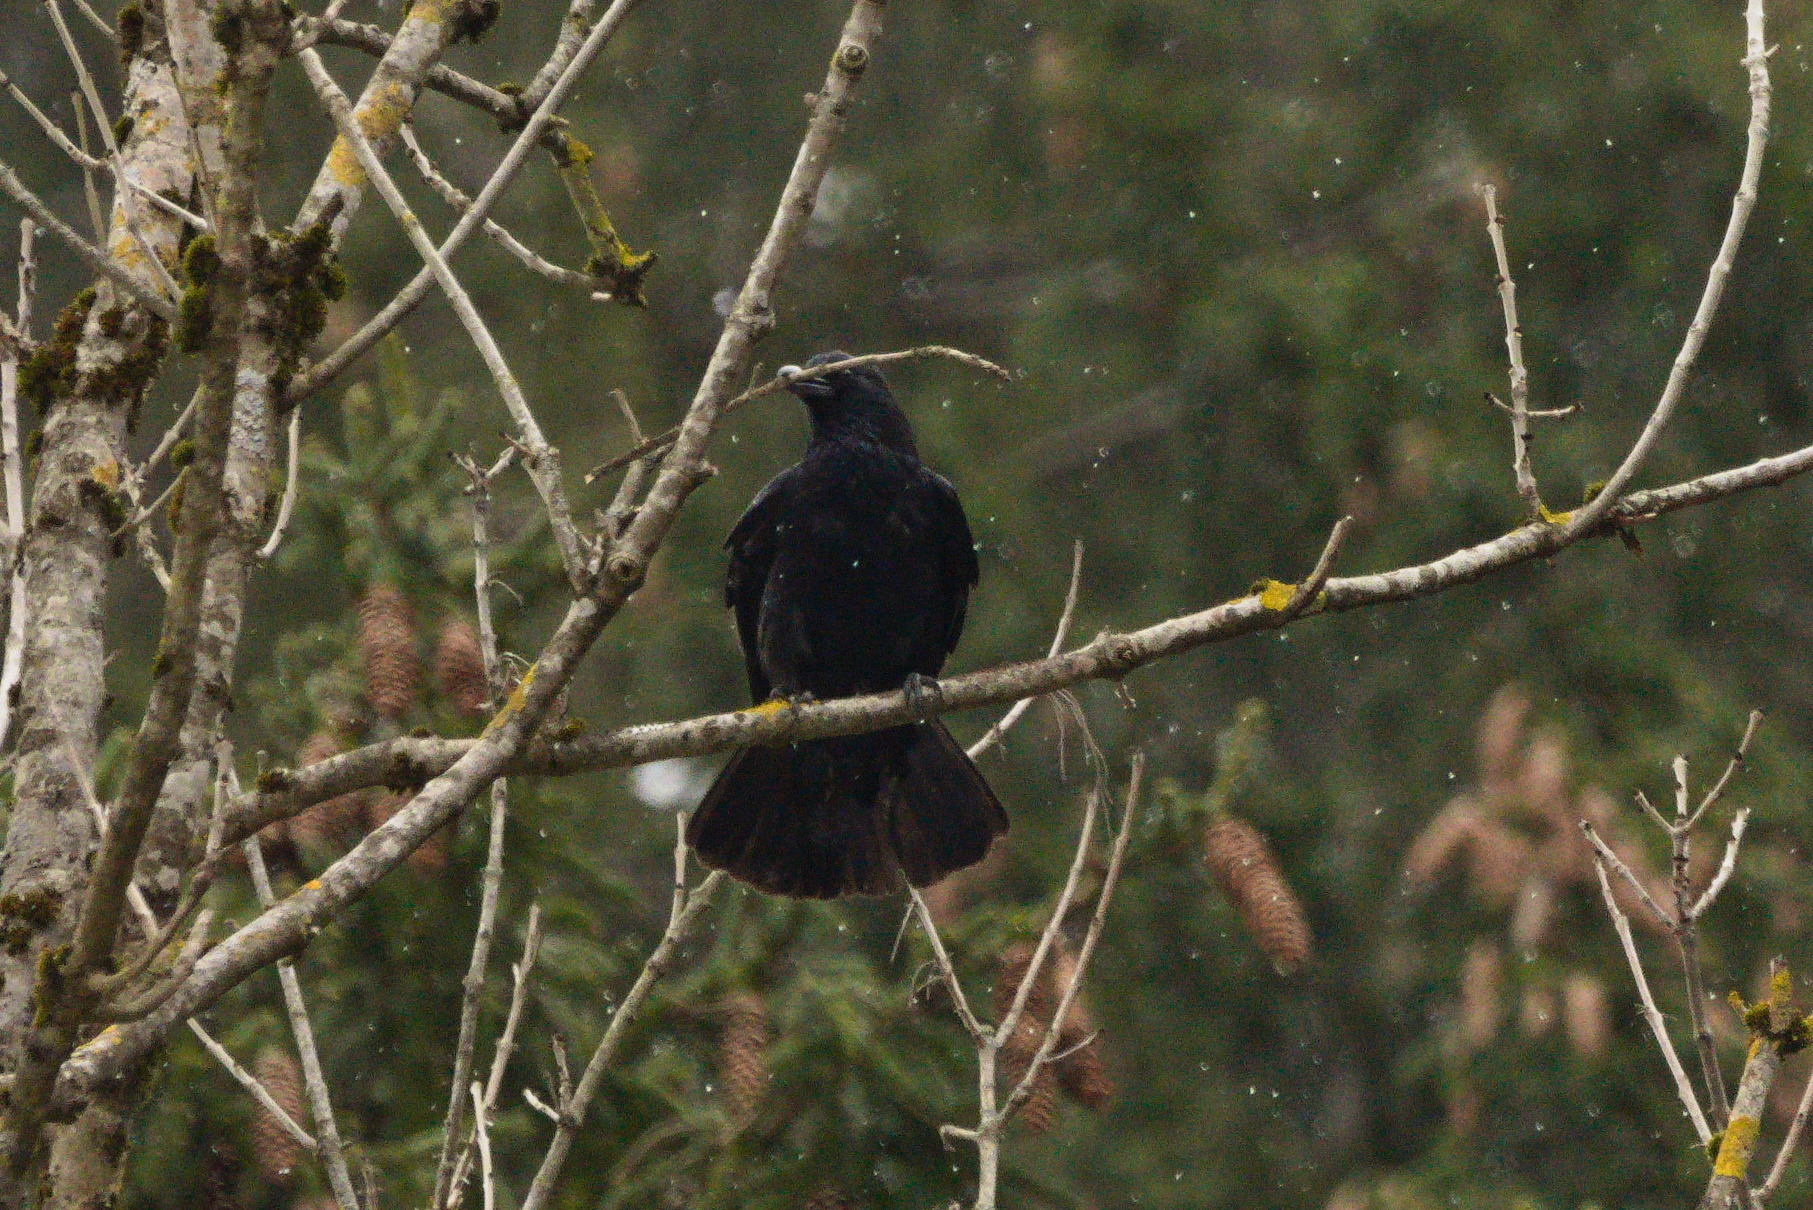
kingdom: Animalia
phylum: Chordata
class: Aves
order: Passeriformes
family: Corvidae
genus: Corvus
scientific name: Corvus corone
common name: Carrion crow
